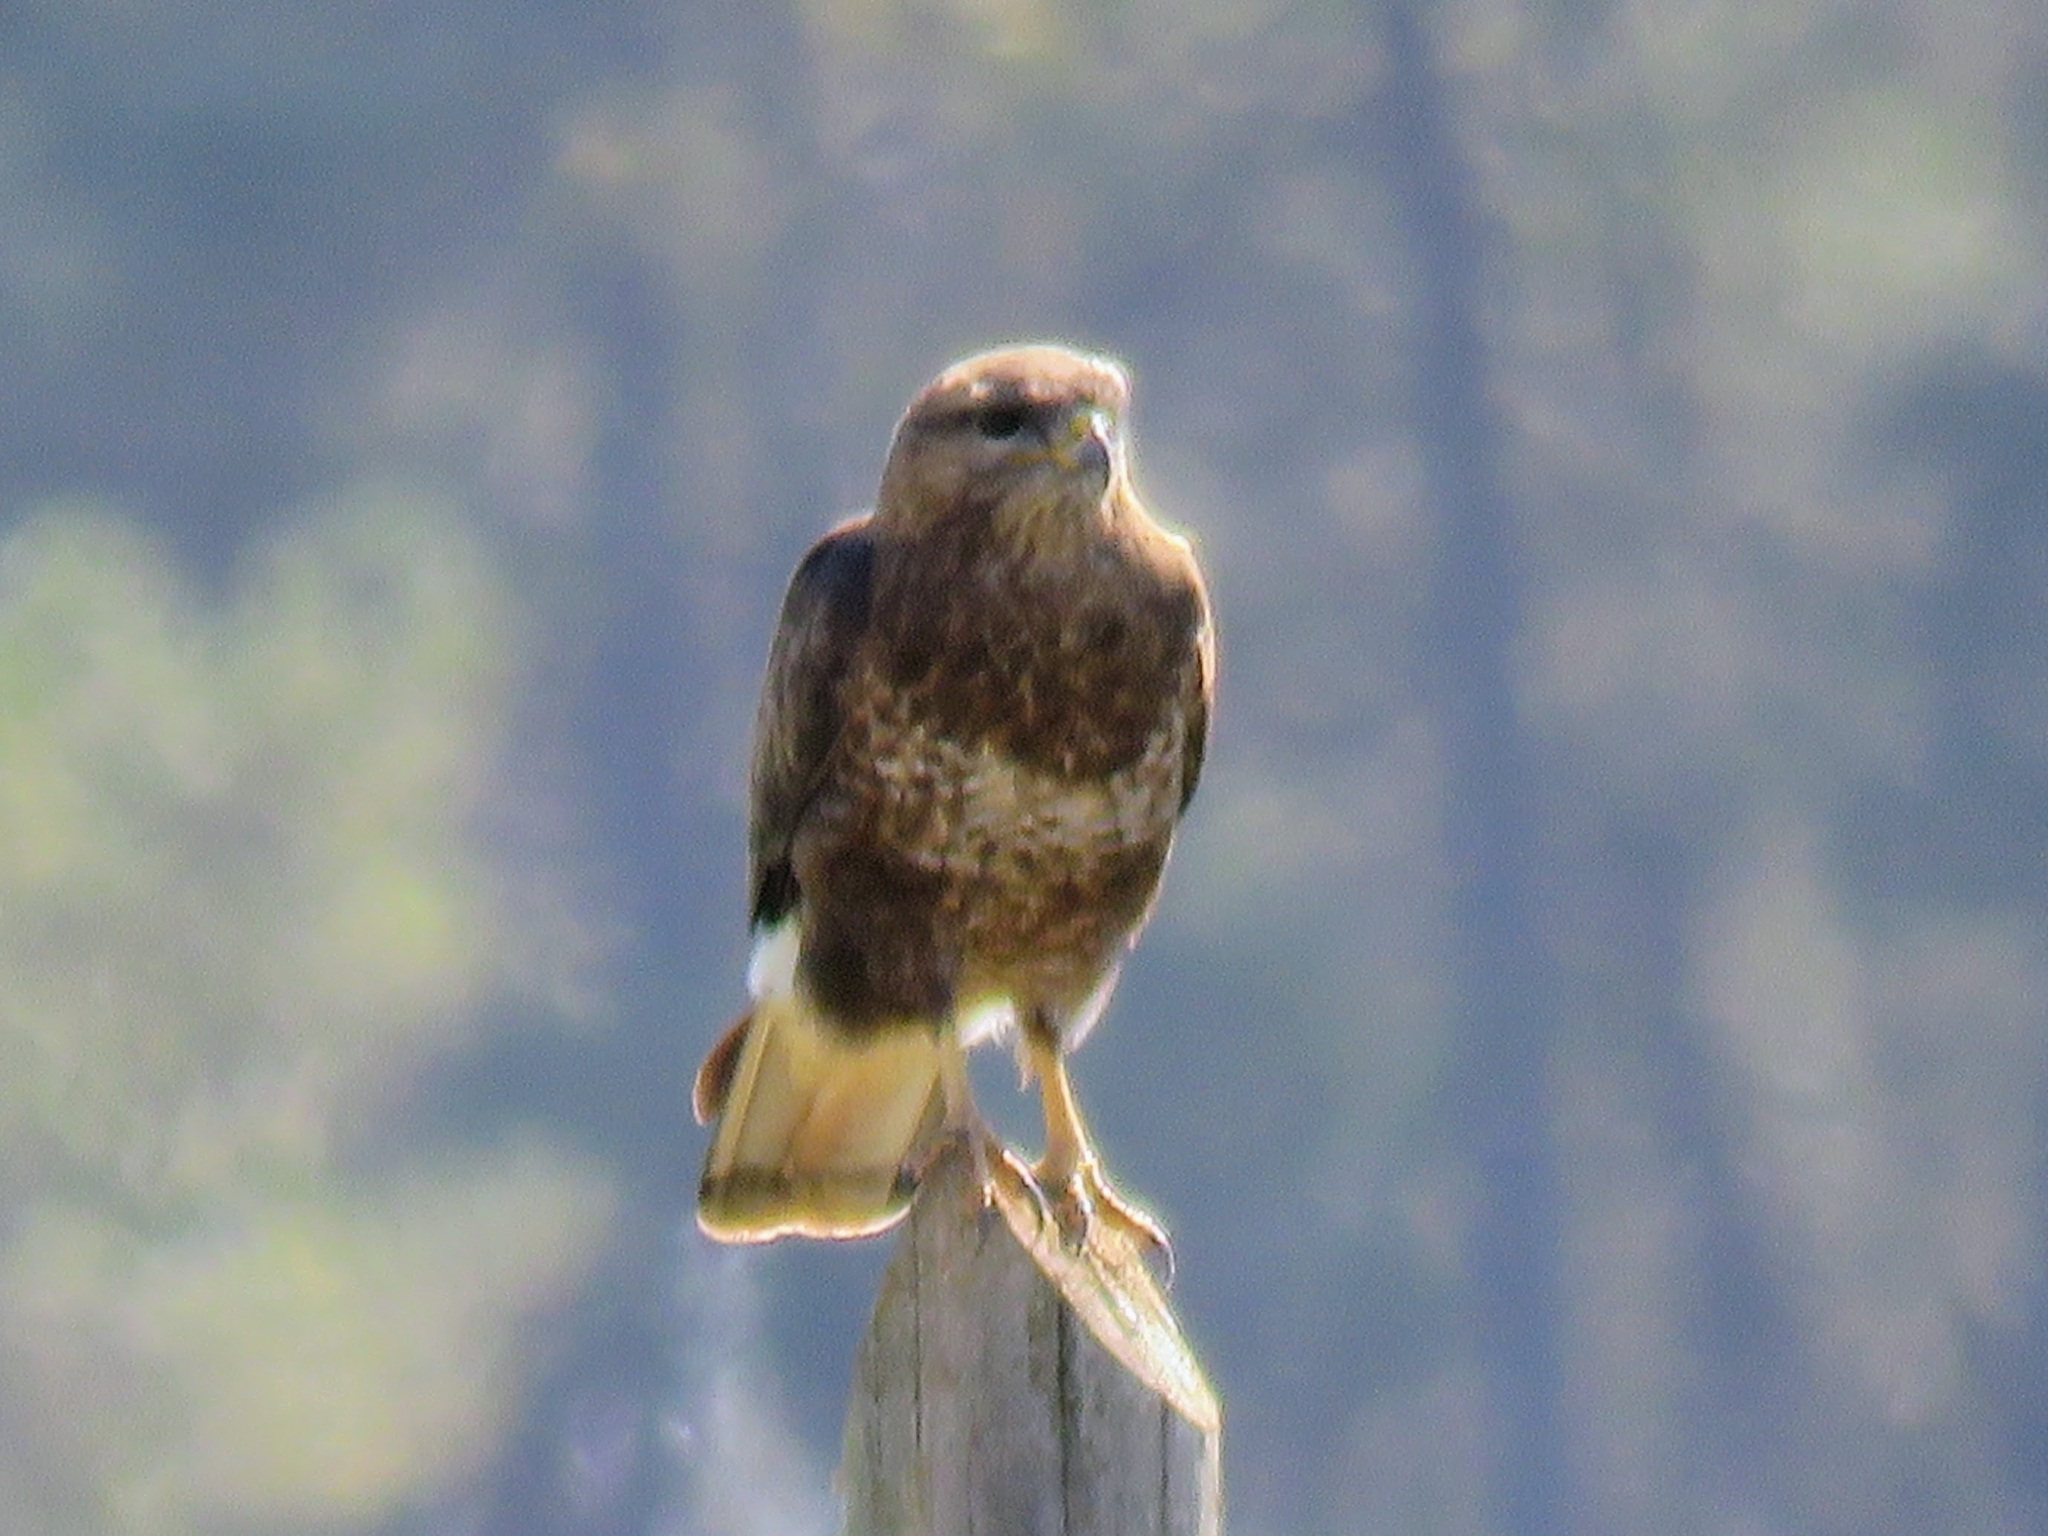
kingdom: Animalia
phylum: Chordata
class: Aves
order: Accipitriformes
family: Accipitridae
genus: Buteo
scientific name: Buteo buteo
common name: Common buzzard
